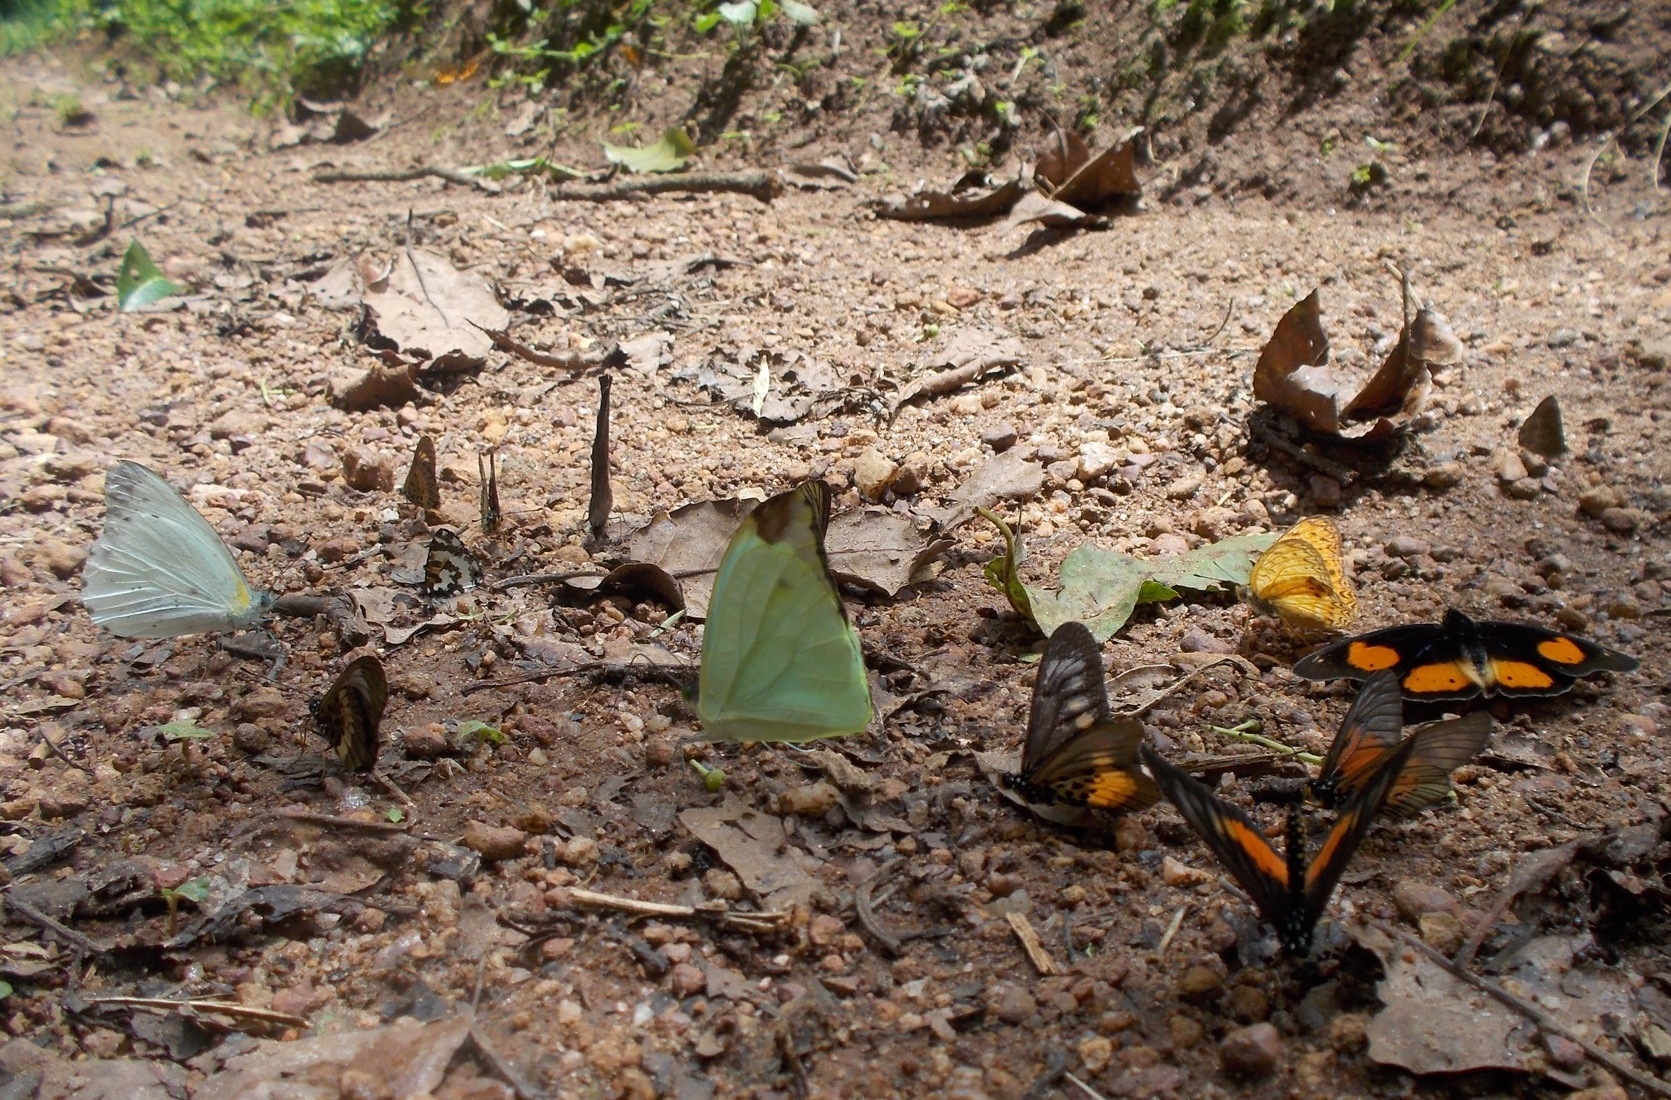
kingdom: Animalia
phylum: Arthropoda
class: Insecta
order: Lepidoptera
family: Nymphalidae
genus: Junonia
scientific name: Junonia westermanni
